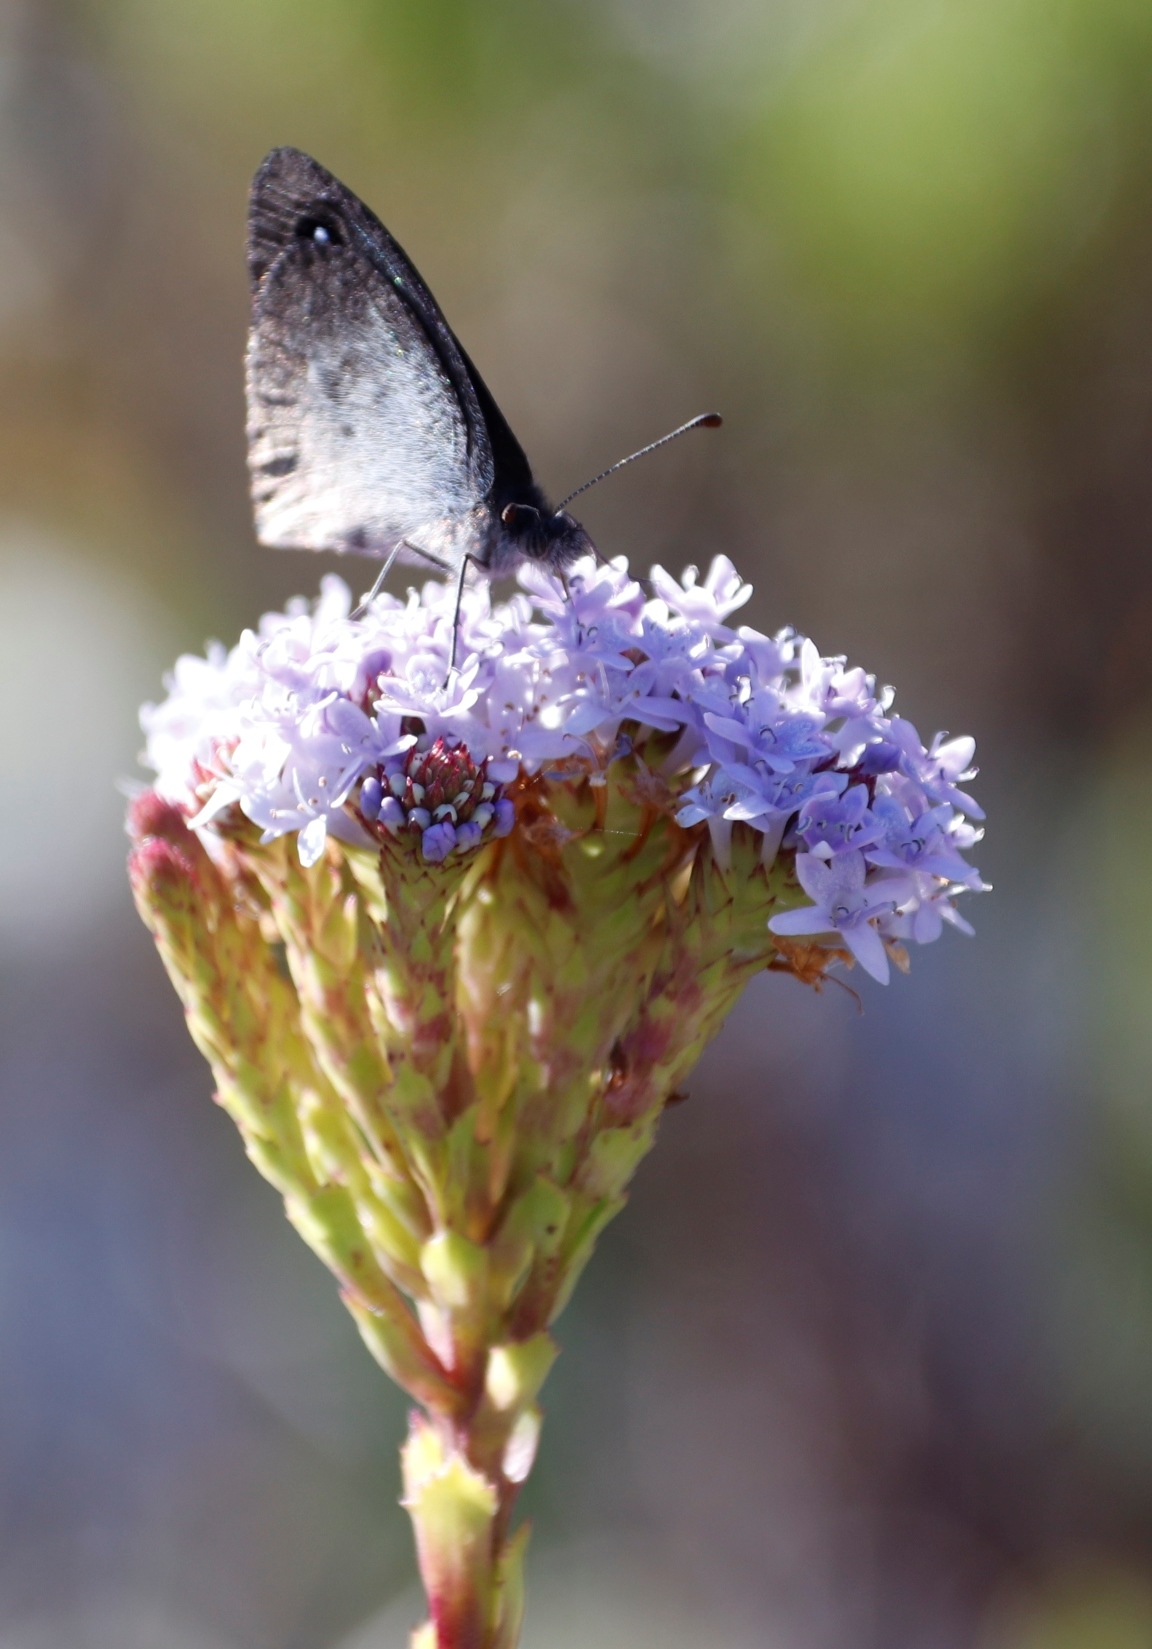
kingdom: Plantae
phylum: Tracheophyta
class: Magnoliopsida
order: Lamiales
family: Scrophulariaceae
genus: Pseudoselago
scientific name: Pseudoselago serrata
